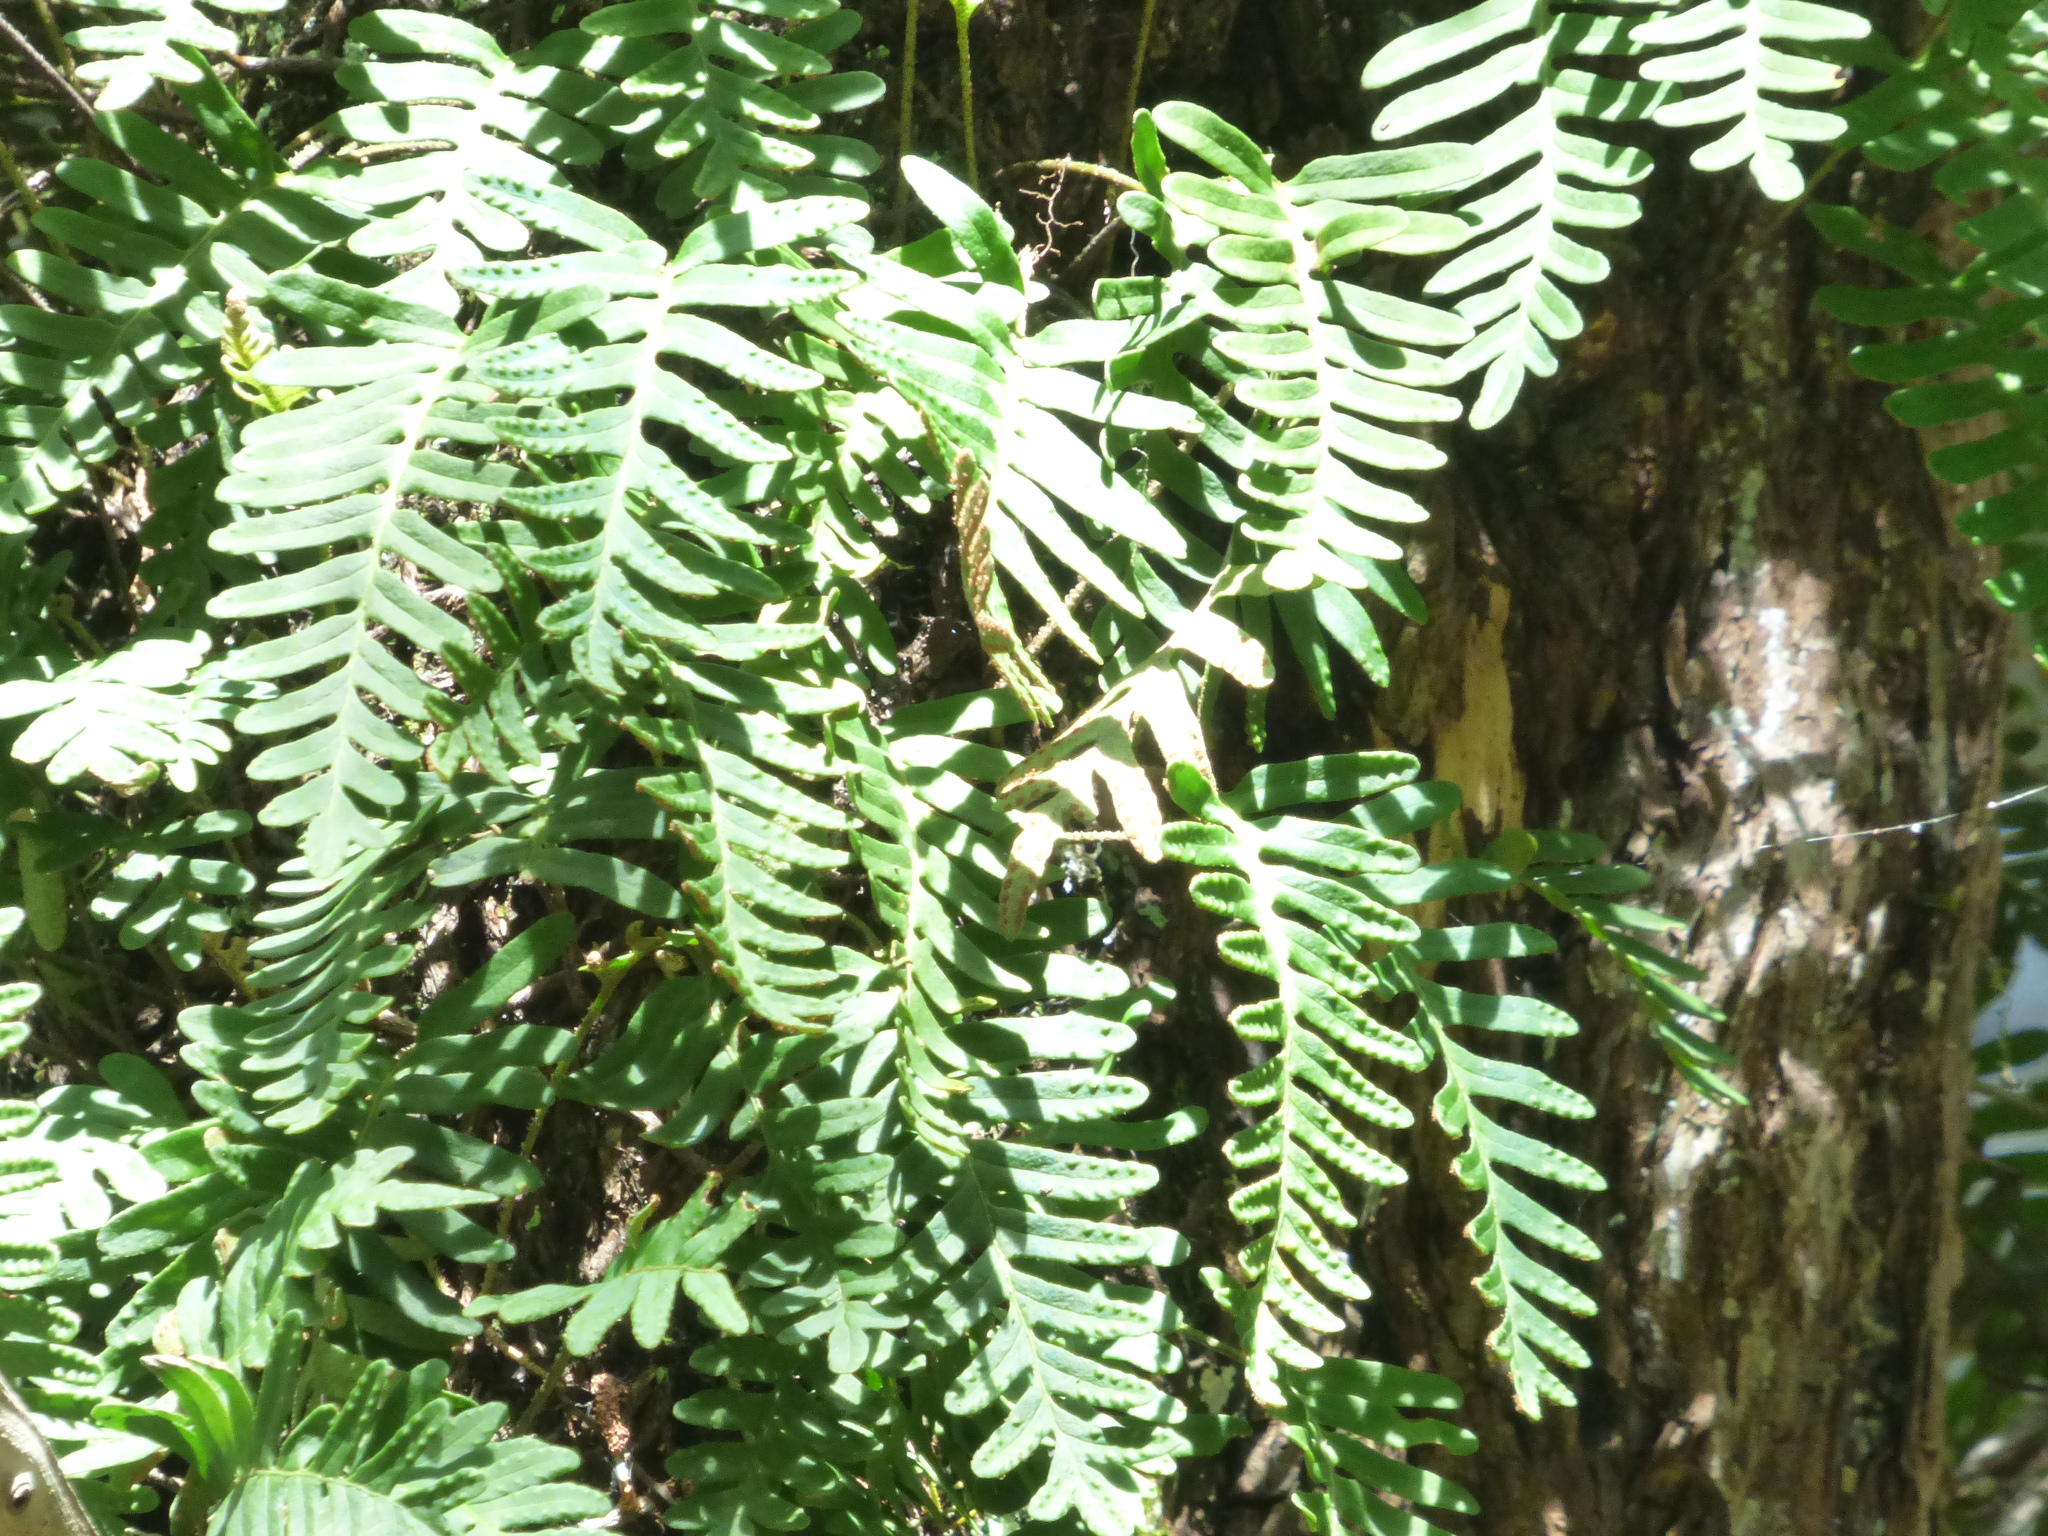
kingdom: Plantae
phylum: Tracheophyta
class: Polypodiopsida
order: Polypodiales
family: Polypodiaceae
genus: Pleopeltis
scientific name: Pleopeltis michauxiana
